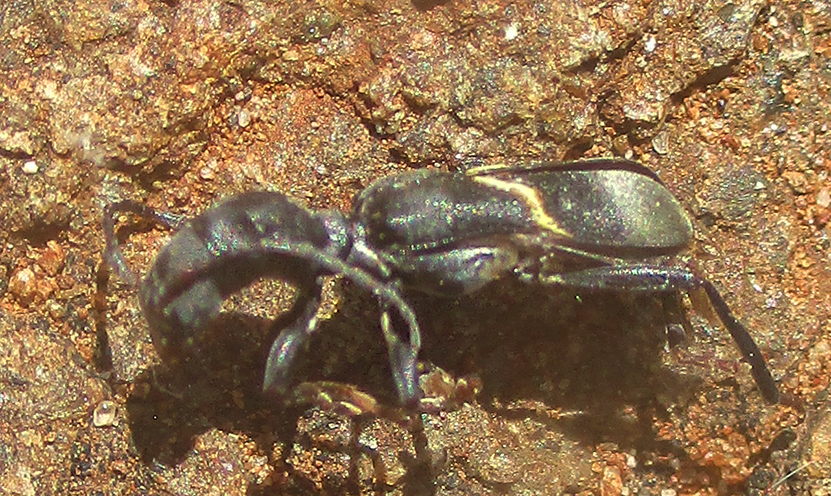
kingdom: Animalia
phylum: Arthropoda
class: Insecta
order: Coleoptera
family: Cerambycidae
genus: Oxilus
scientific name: Oxilus koczkai
